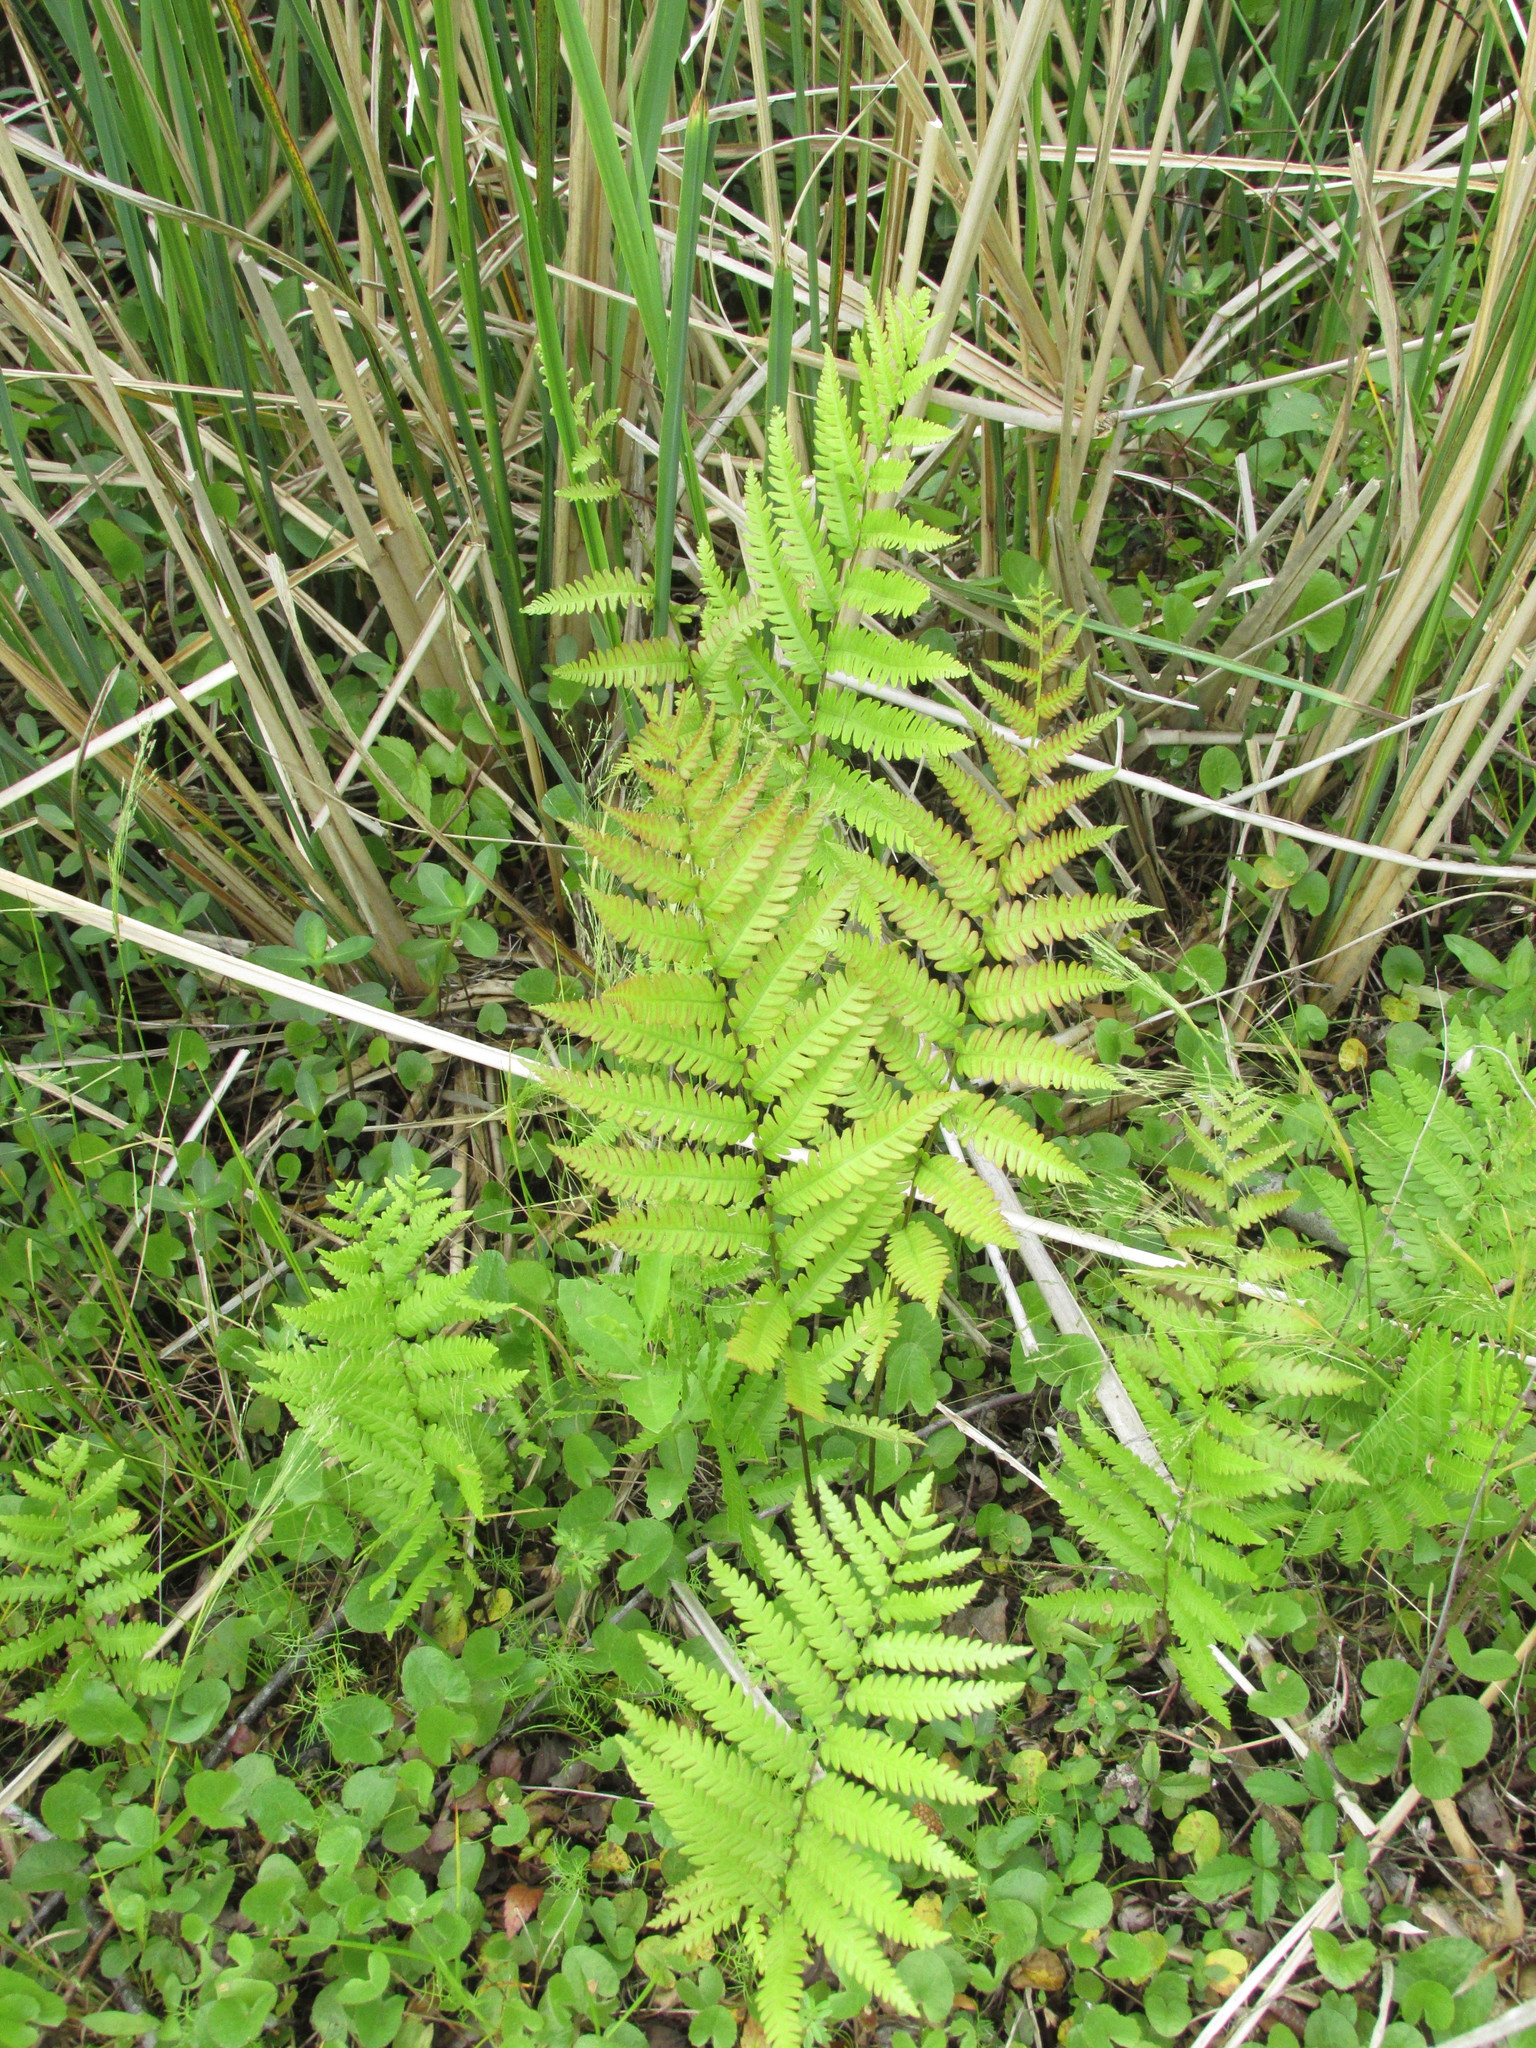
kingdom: Plantae
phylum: Tracheophyta
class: Polypodiopsida
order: Polypodiales
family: Blechnaceae
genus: Anchistea
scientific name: Anchistea virginica
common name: Virginia chain fern
